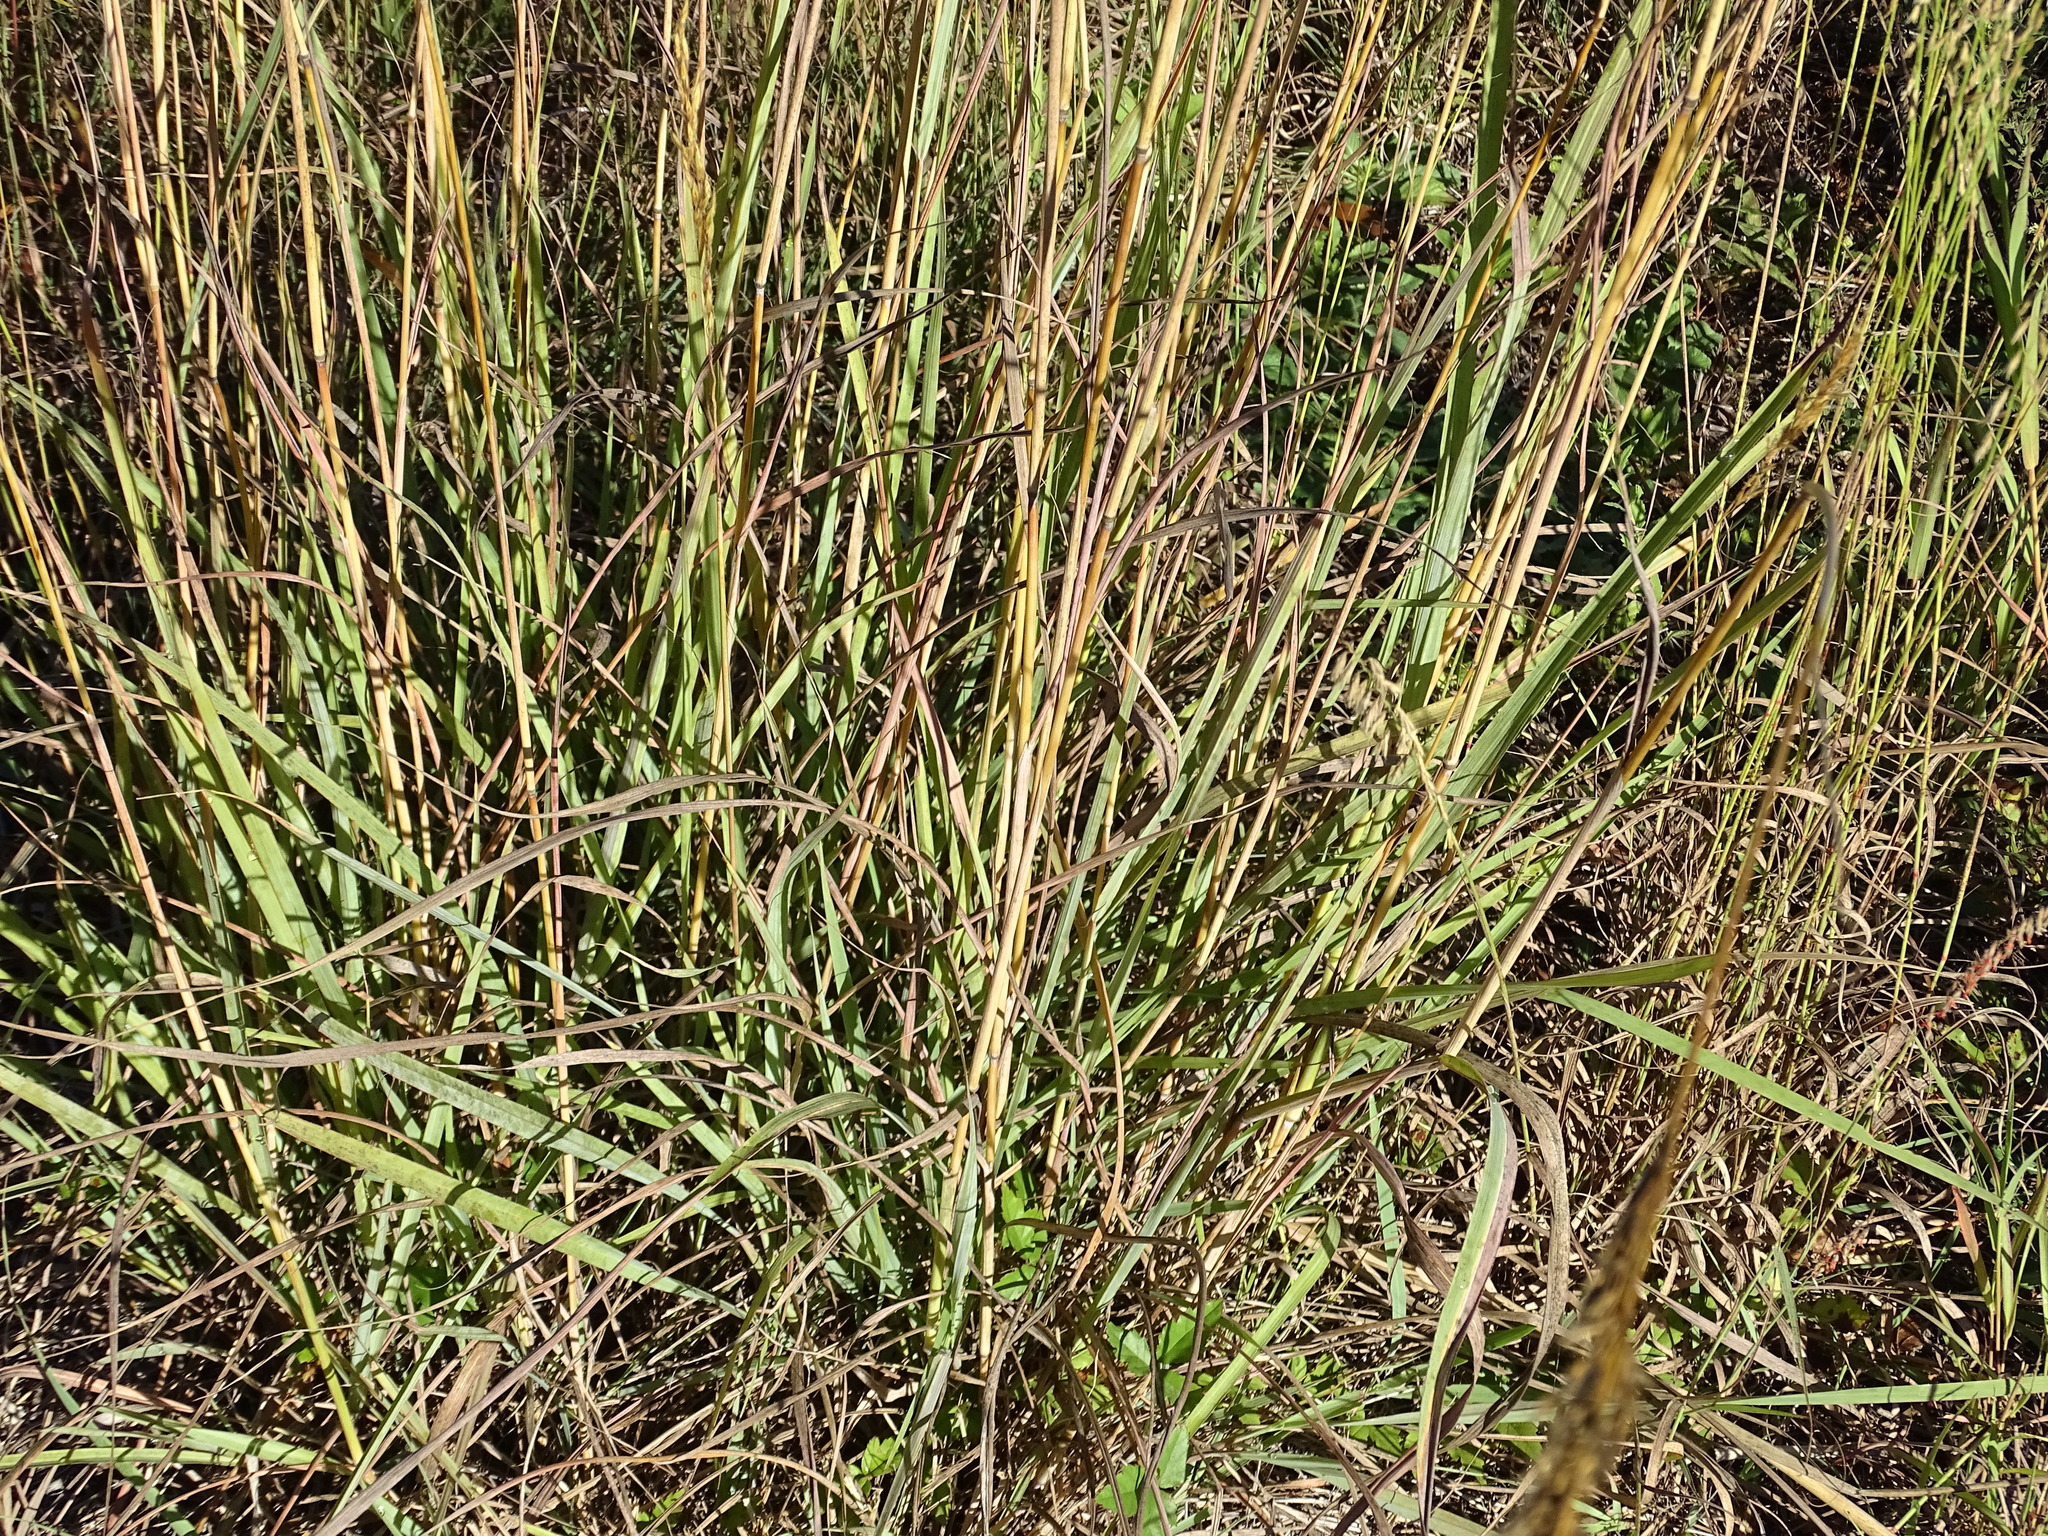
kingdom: Plantae
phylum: Tracheophyta
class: Liliopsida
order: Poales
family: Poaceae
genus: Sorghastrum
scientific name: Sorghastrum nutans
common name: Indian grass
